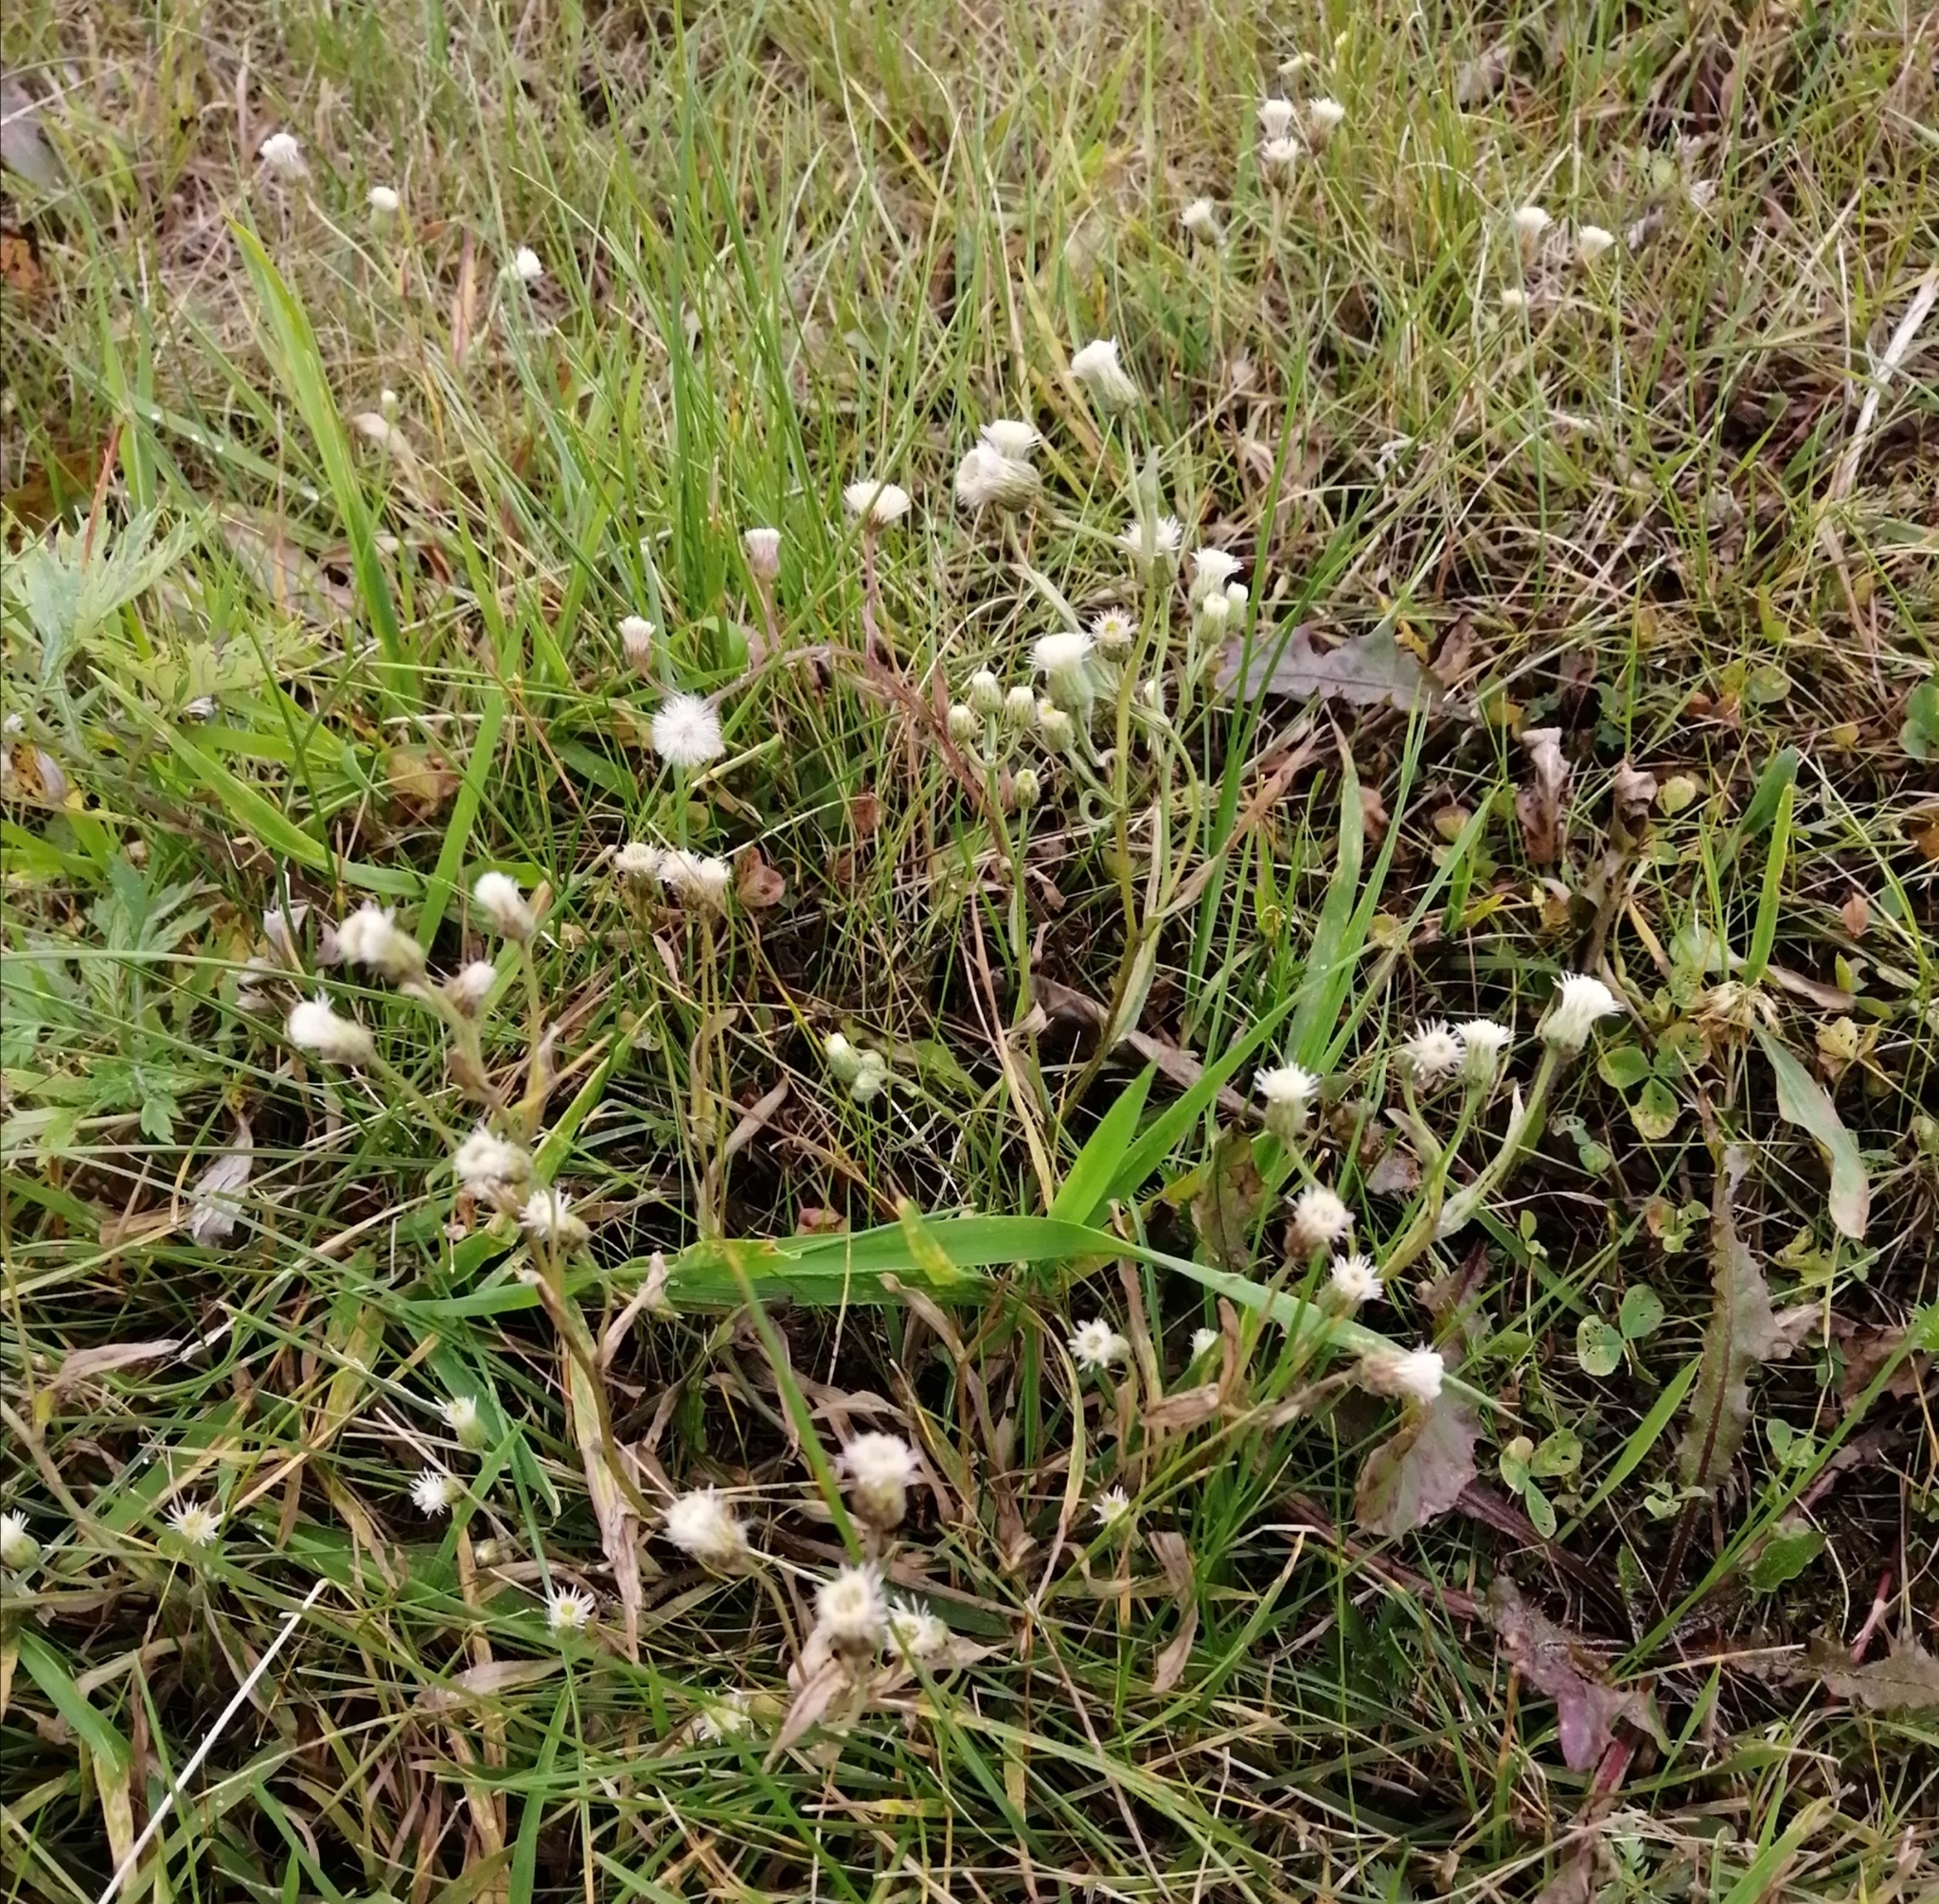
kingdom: Plantae
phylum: Tracheophyta
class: Magnoliopsida
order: Asterales
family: Asteraceae
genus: Erigeron
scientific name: Erigeron acris
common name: Blue fleabane
